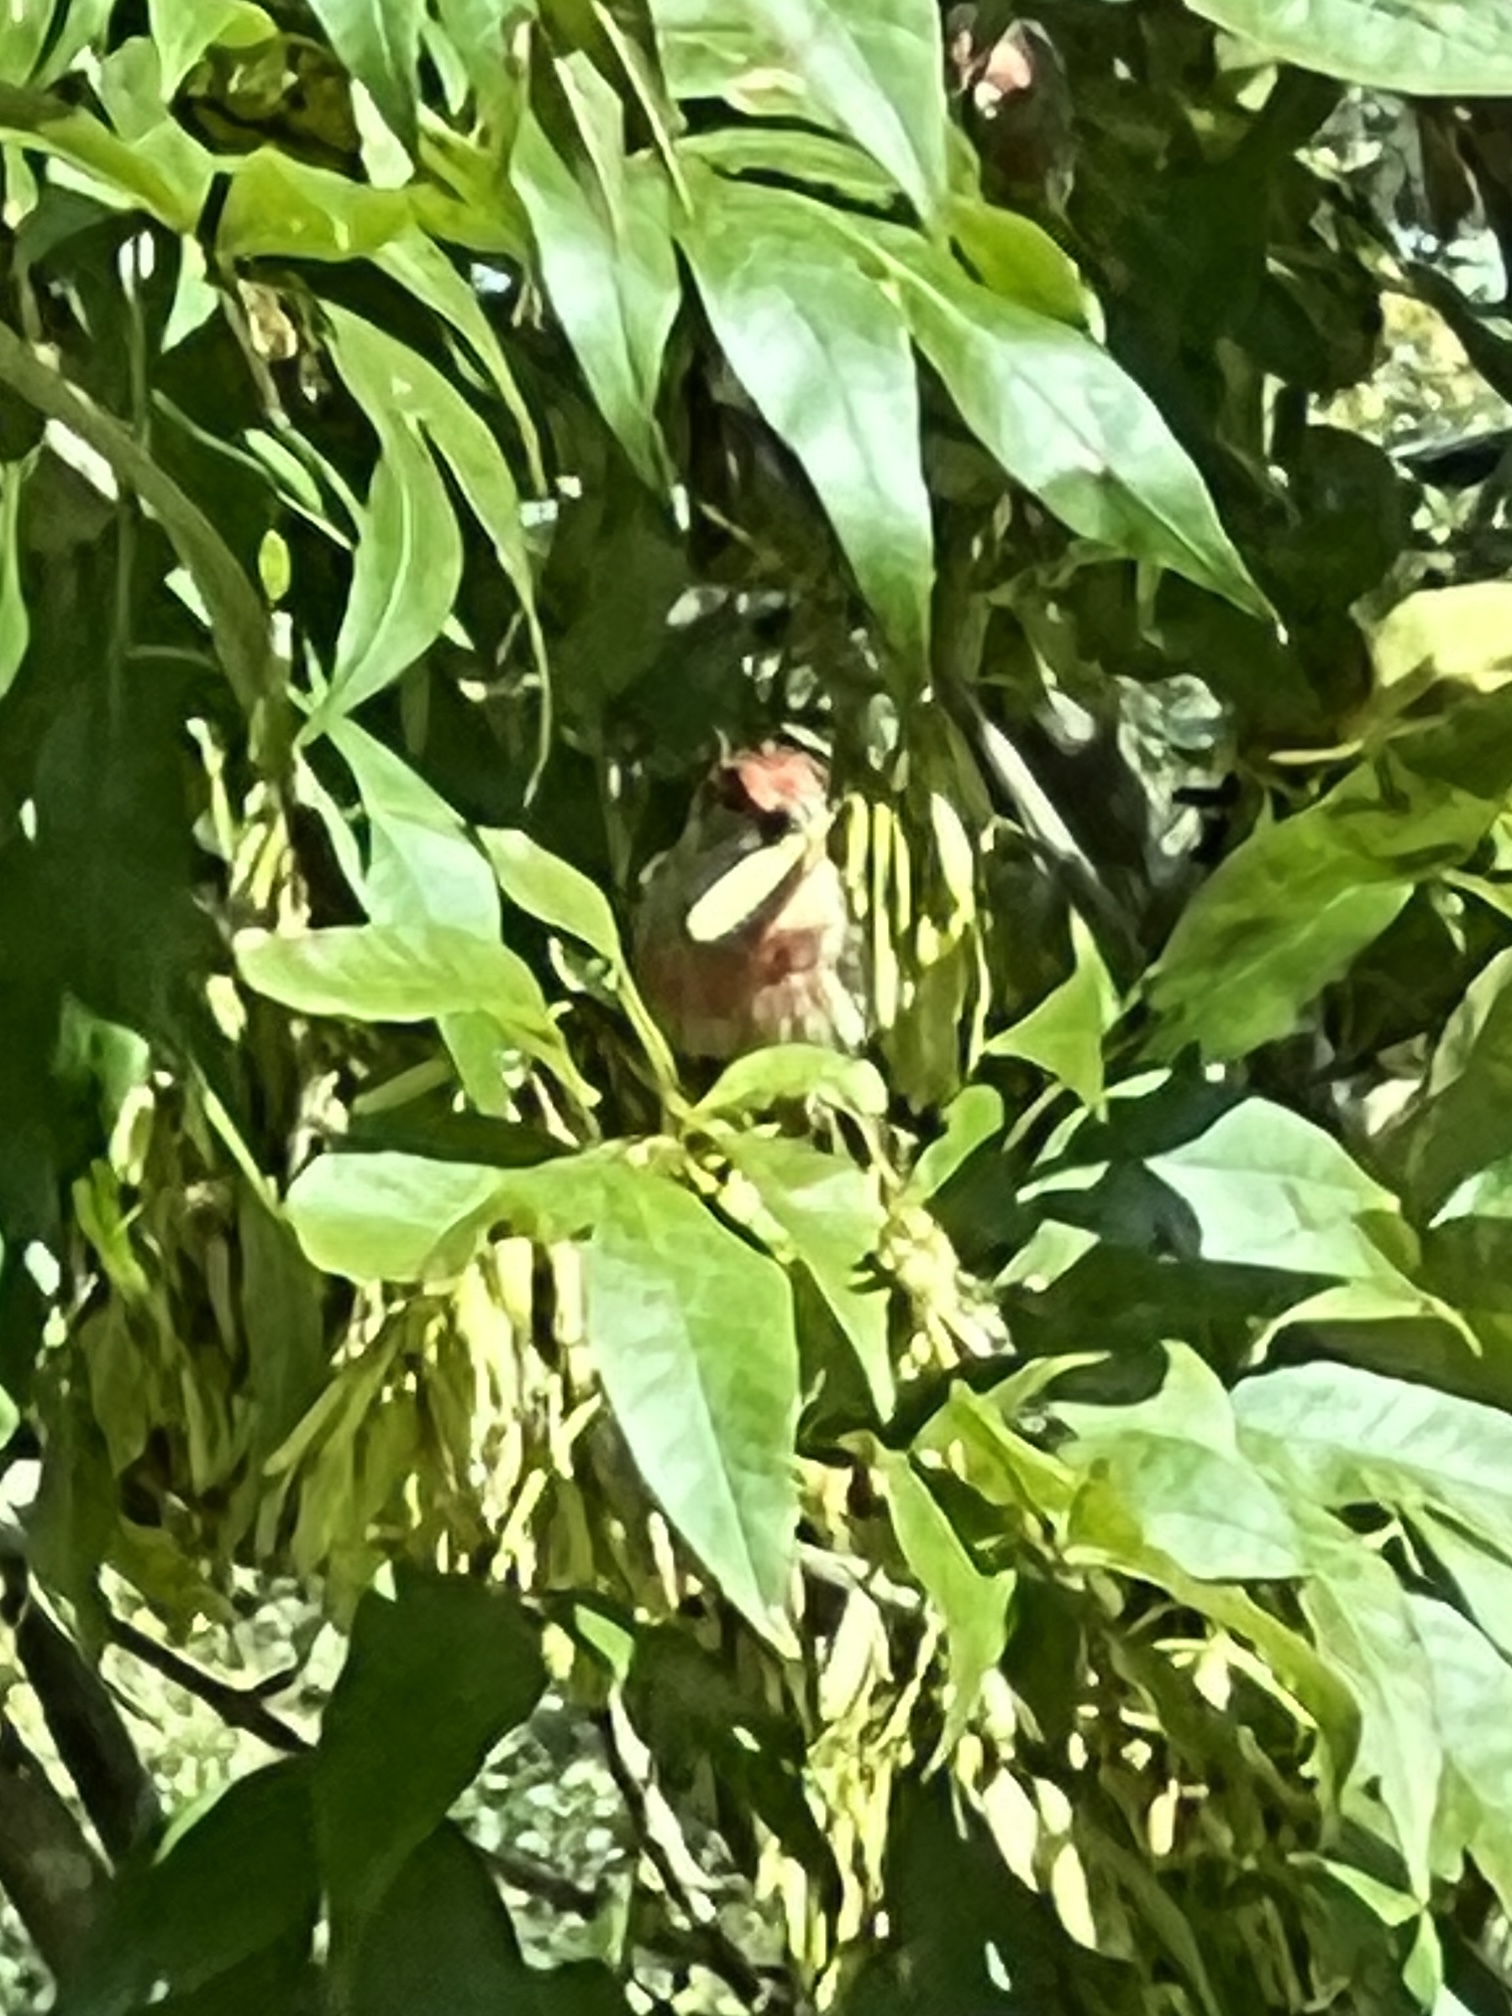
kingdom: Animalia
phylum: Chordata
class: Aves
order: Passeriformes
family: Fringillidae
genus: Haemorhous
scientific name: Haemorhous mexicanus
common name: House finch
